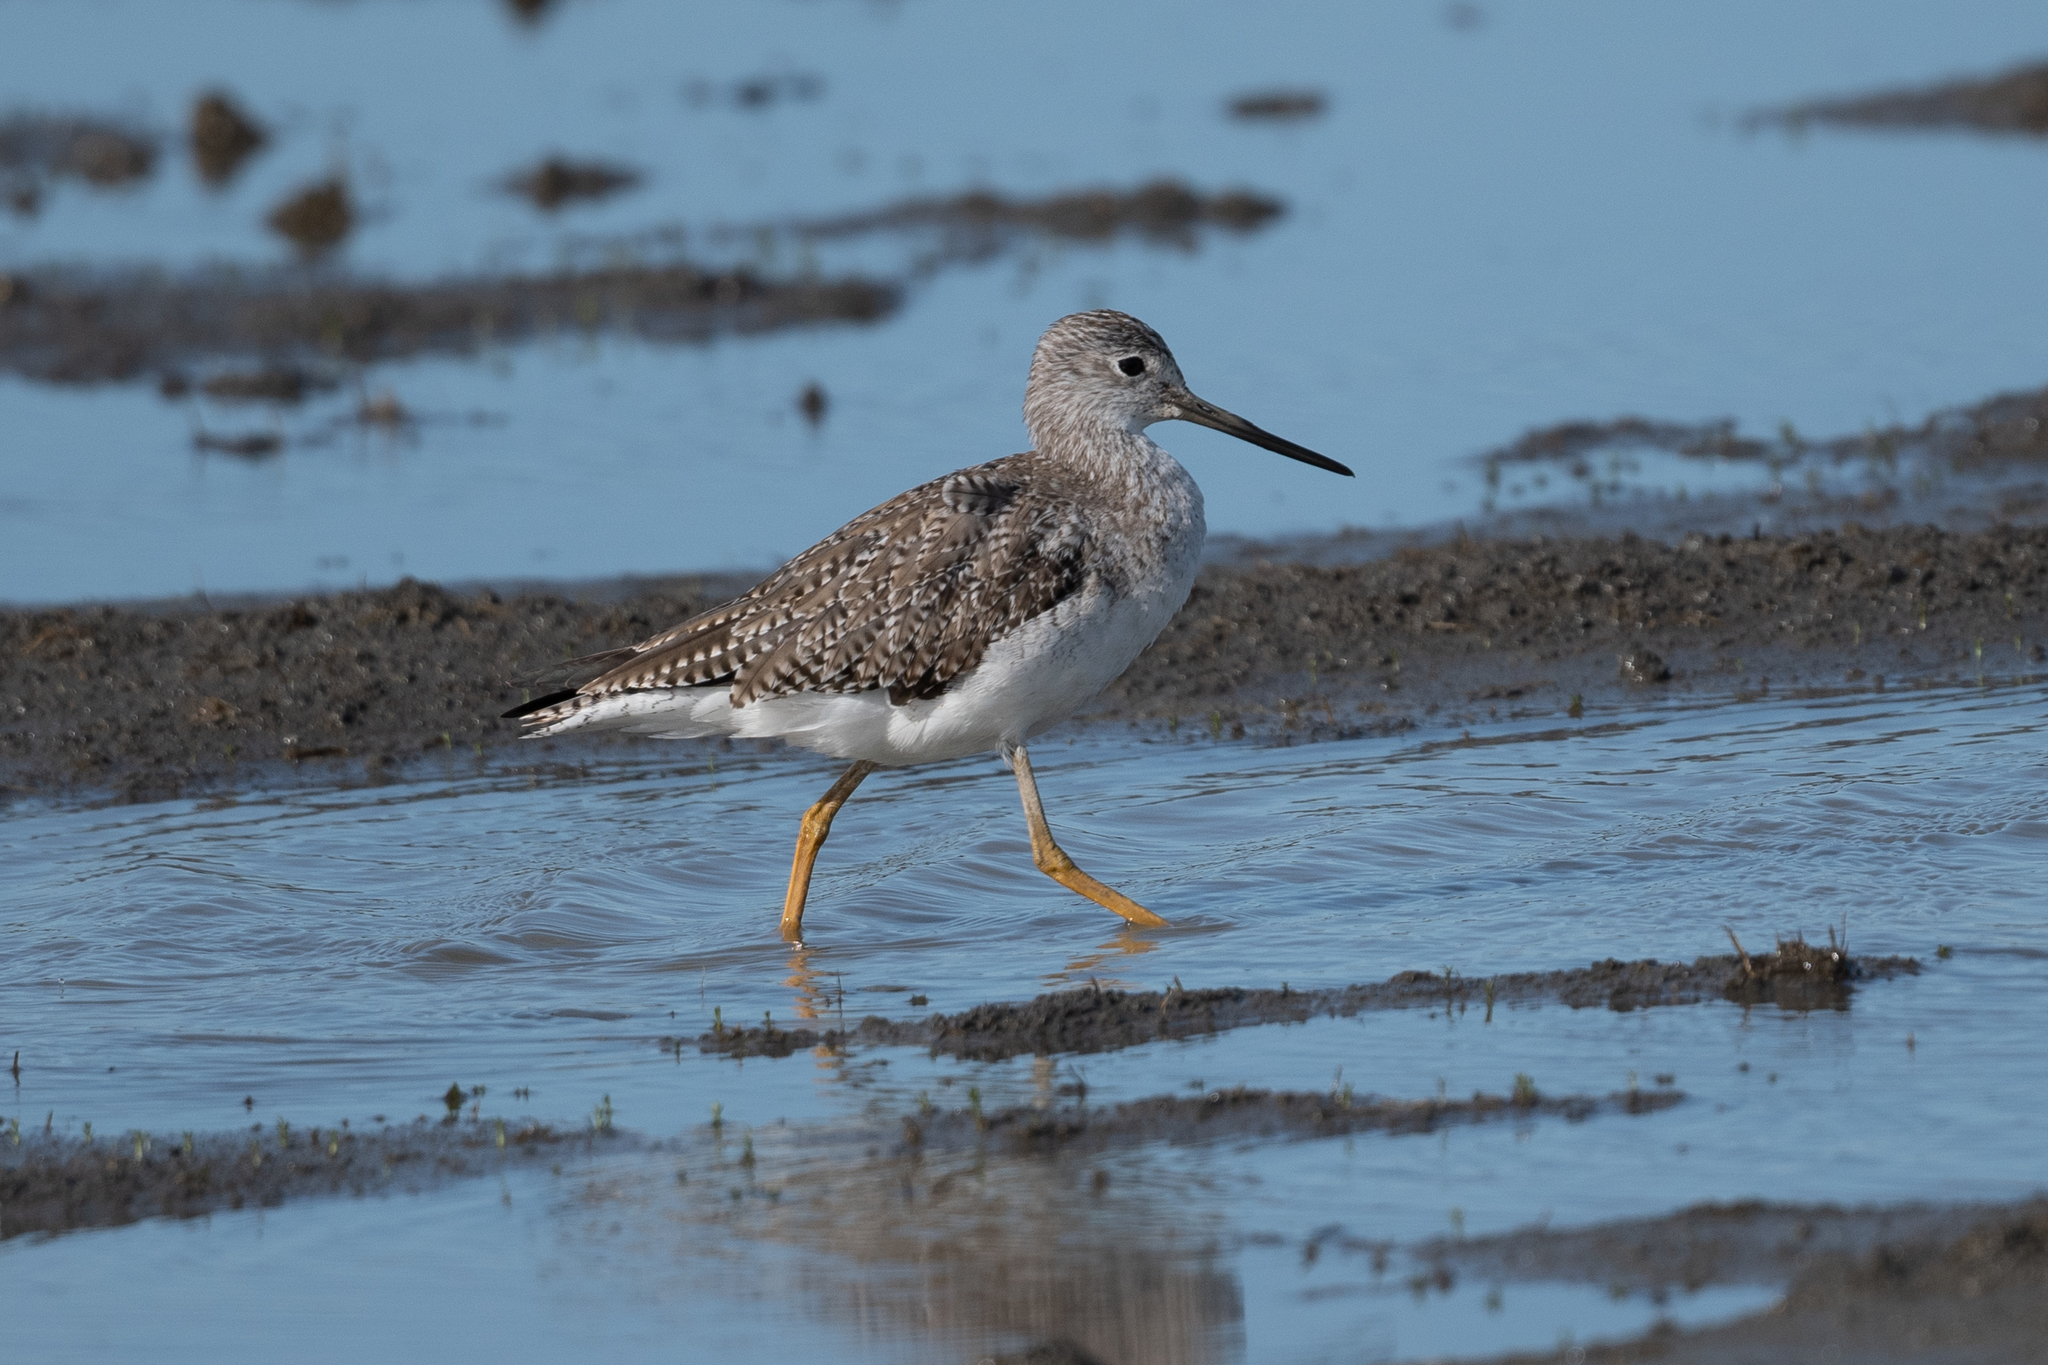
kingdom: Animalia
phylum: Chordata
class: Aves
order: Charadriiformes
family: Scolopacidae
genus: Tringa
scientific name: Tringa melanoleuca
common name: Greater yellowlegs
